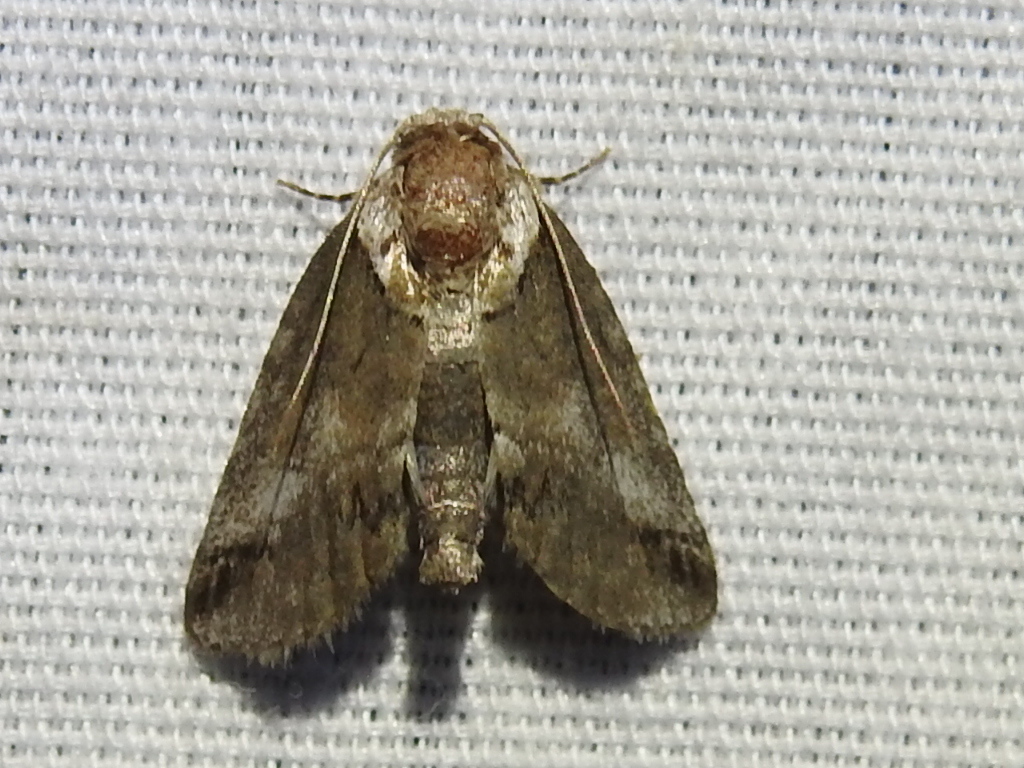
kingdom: Animalia
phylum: Arthropoda
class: Insecta
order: Lepidoptera
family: Nolidae
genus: Baileya
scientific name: Baileya australis
